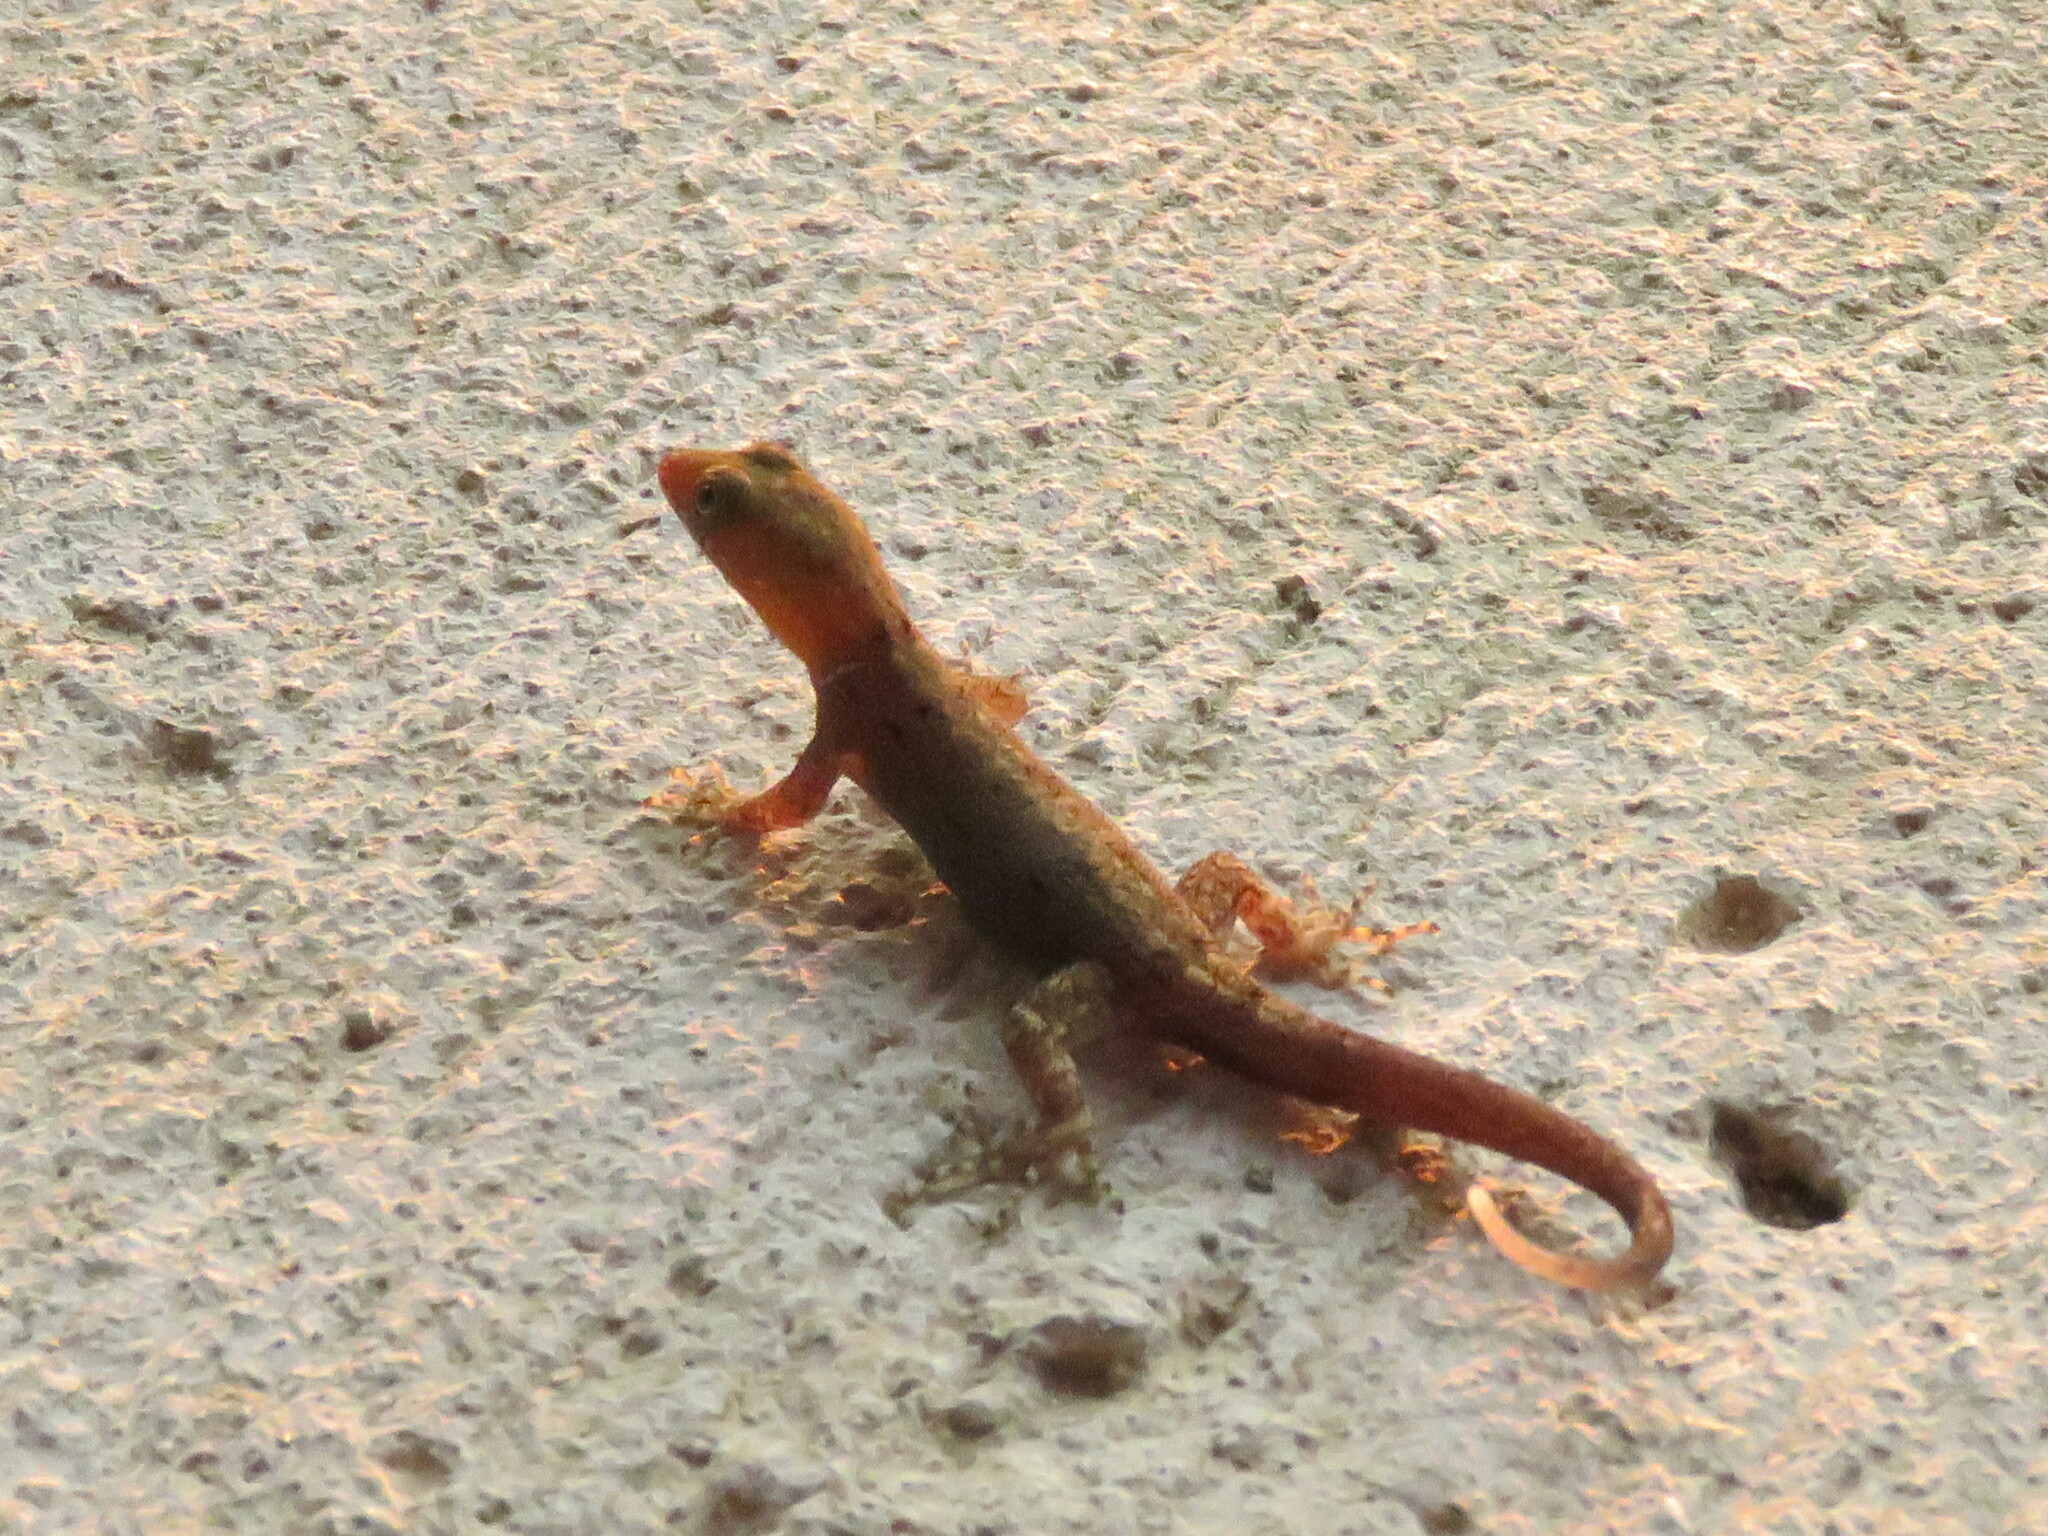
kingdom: Animalia
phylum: Chordata
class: Squamata
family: Sphaerodactylidae
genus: Gonatodes
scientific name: Gonatodes albogularis
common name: Yellow-headed gecko
